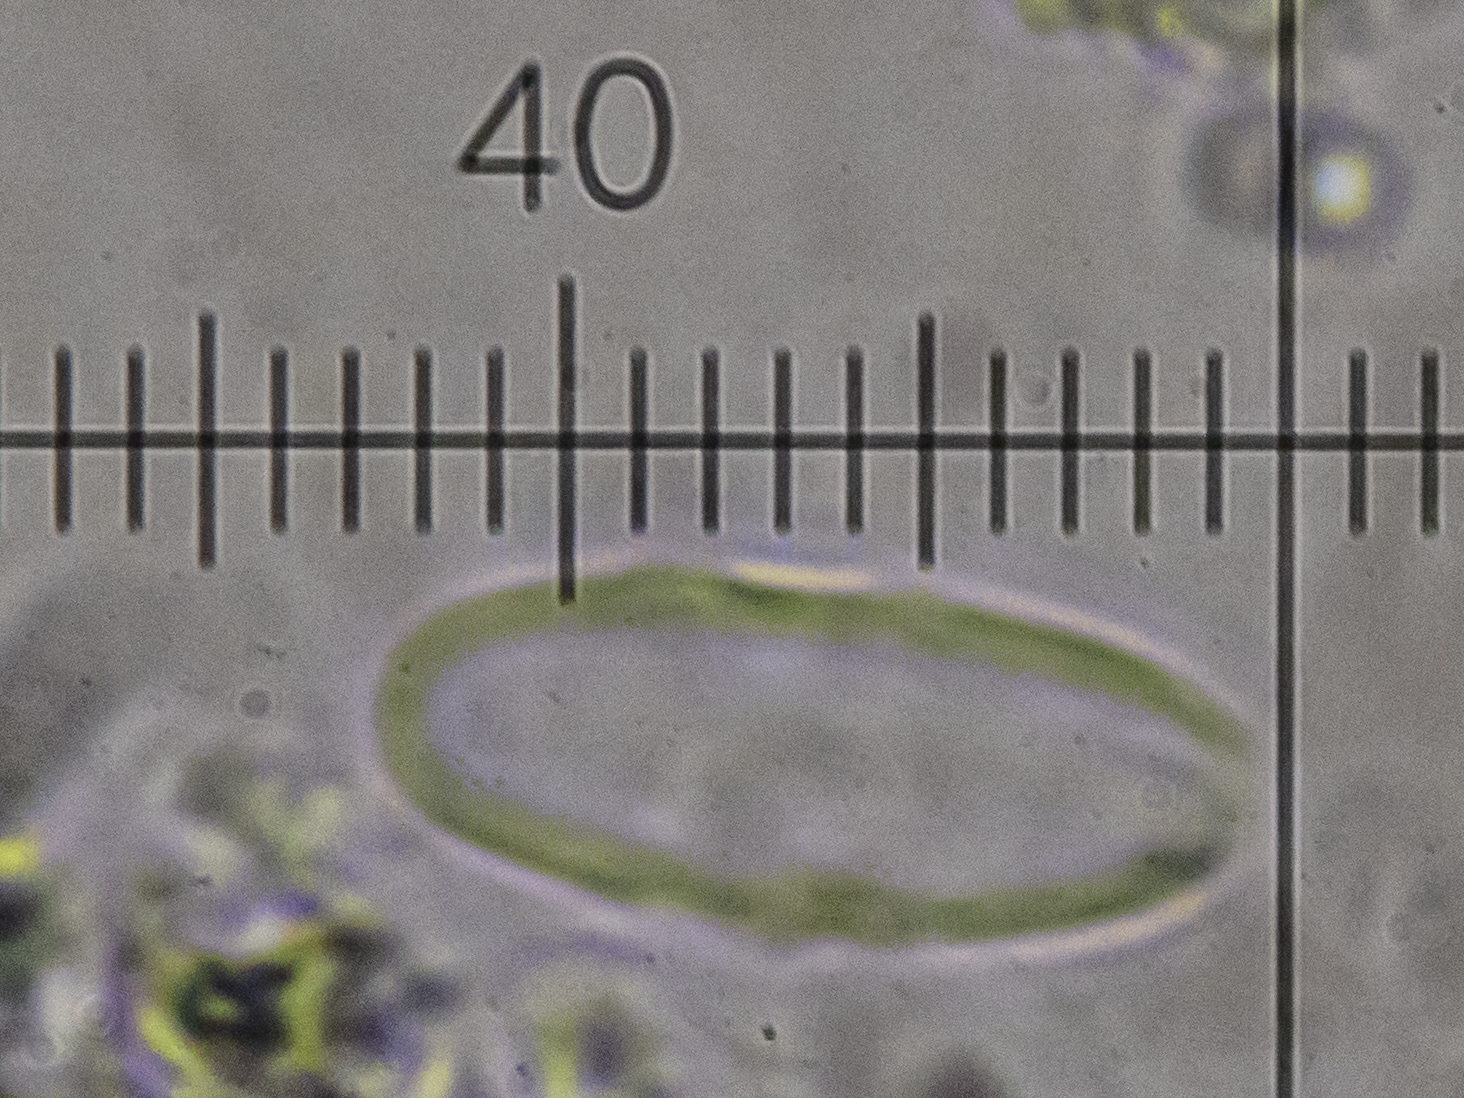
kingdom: Fungi
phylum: Ascomycota
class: Lecanoromycetes
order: Lecideales
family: Lecideaceae
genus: Lecidea
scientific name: Lecidea confluens
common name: Confluent disc lichen
